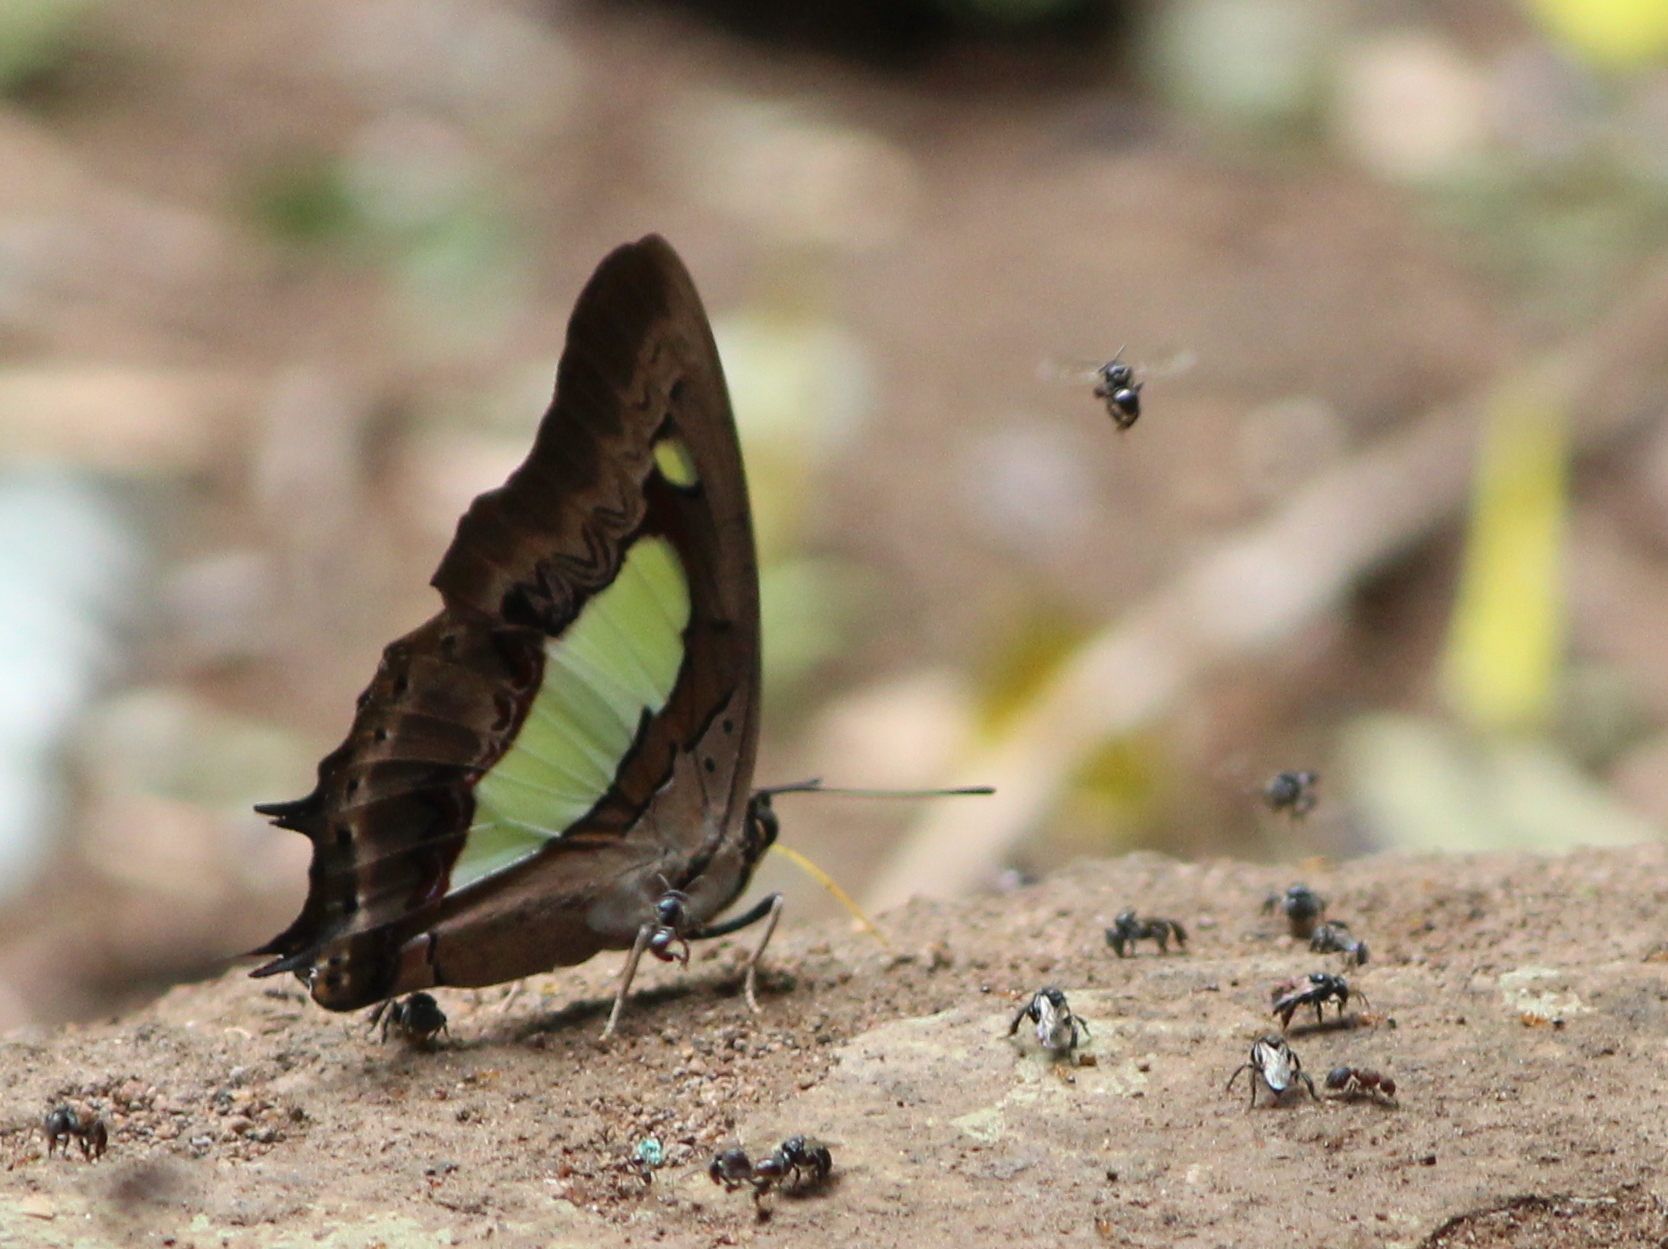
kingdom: Animalia
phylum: Arthropoda
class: Insecta
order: Lepidoptera
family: Nymphalidae
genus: Polyura
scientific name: Polyura
